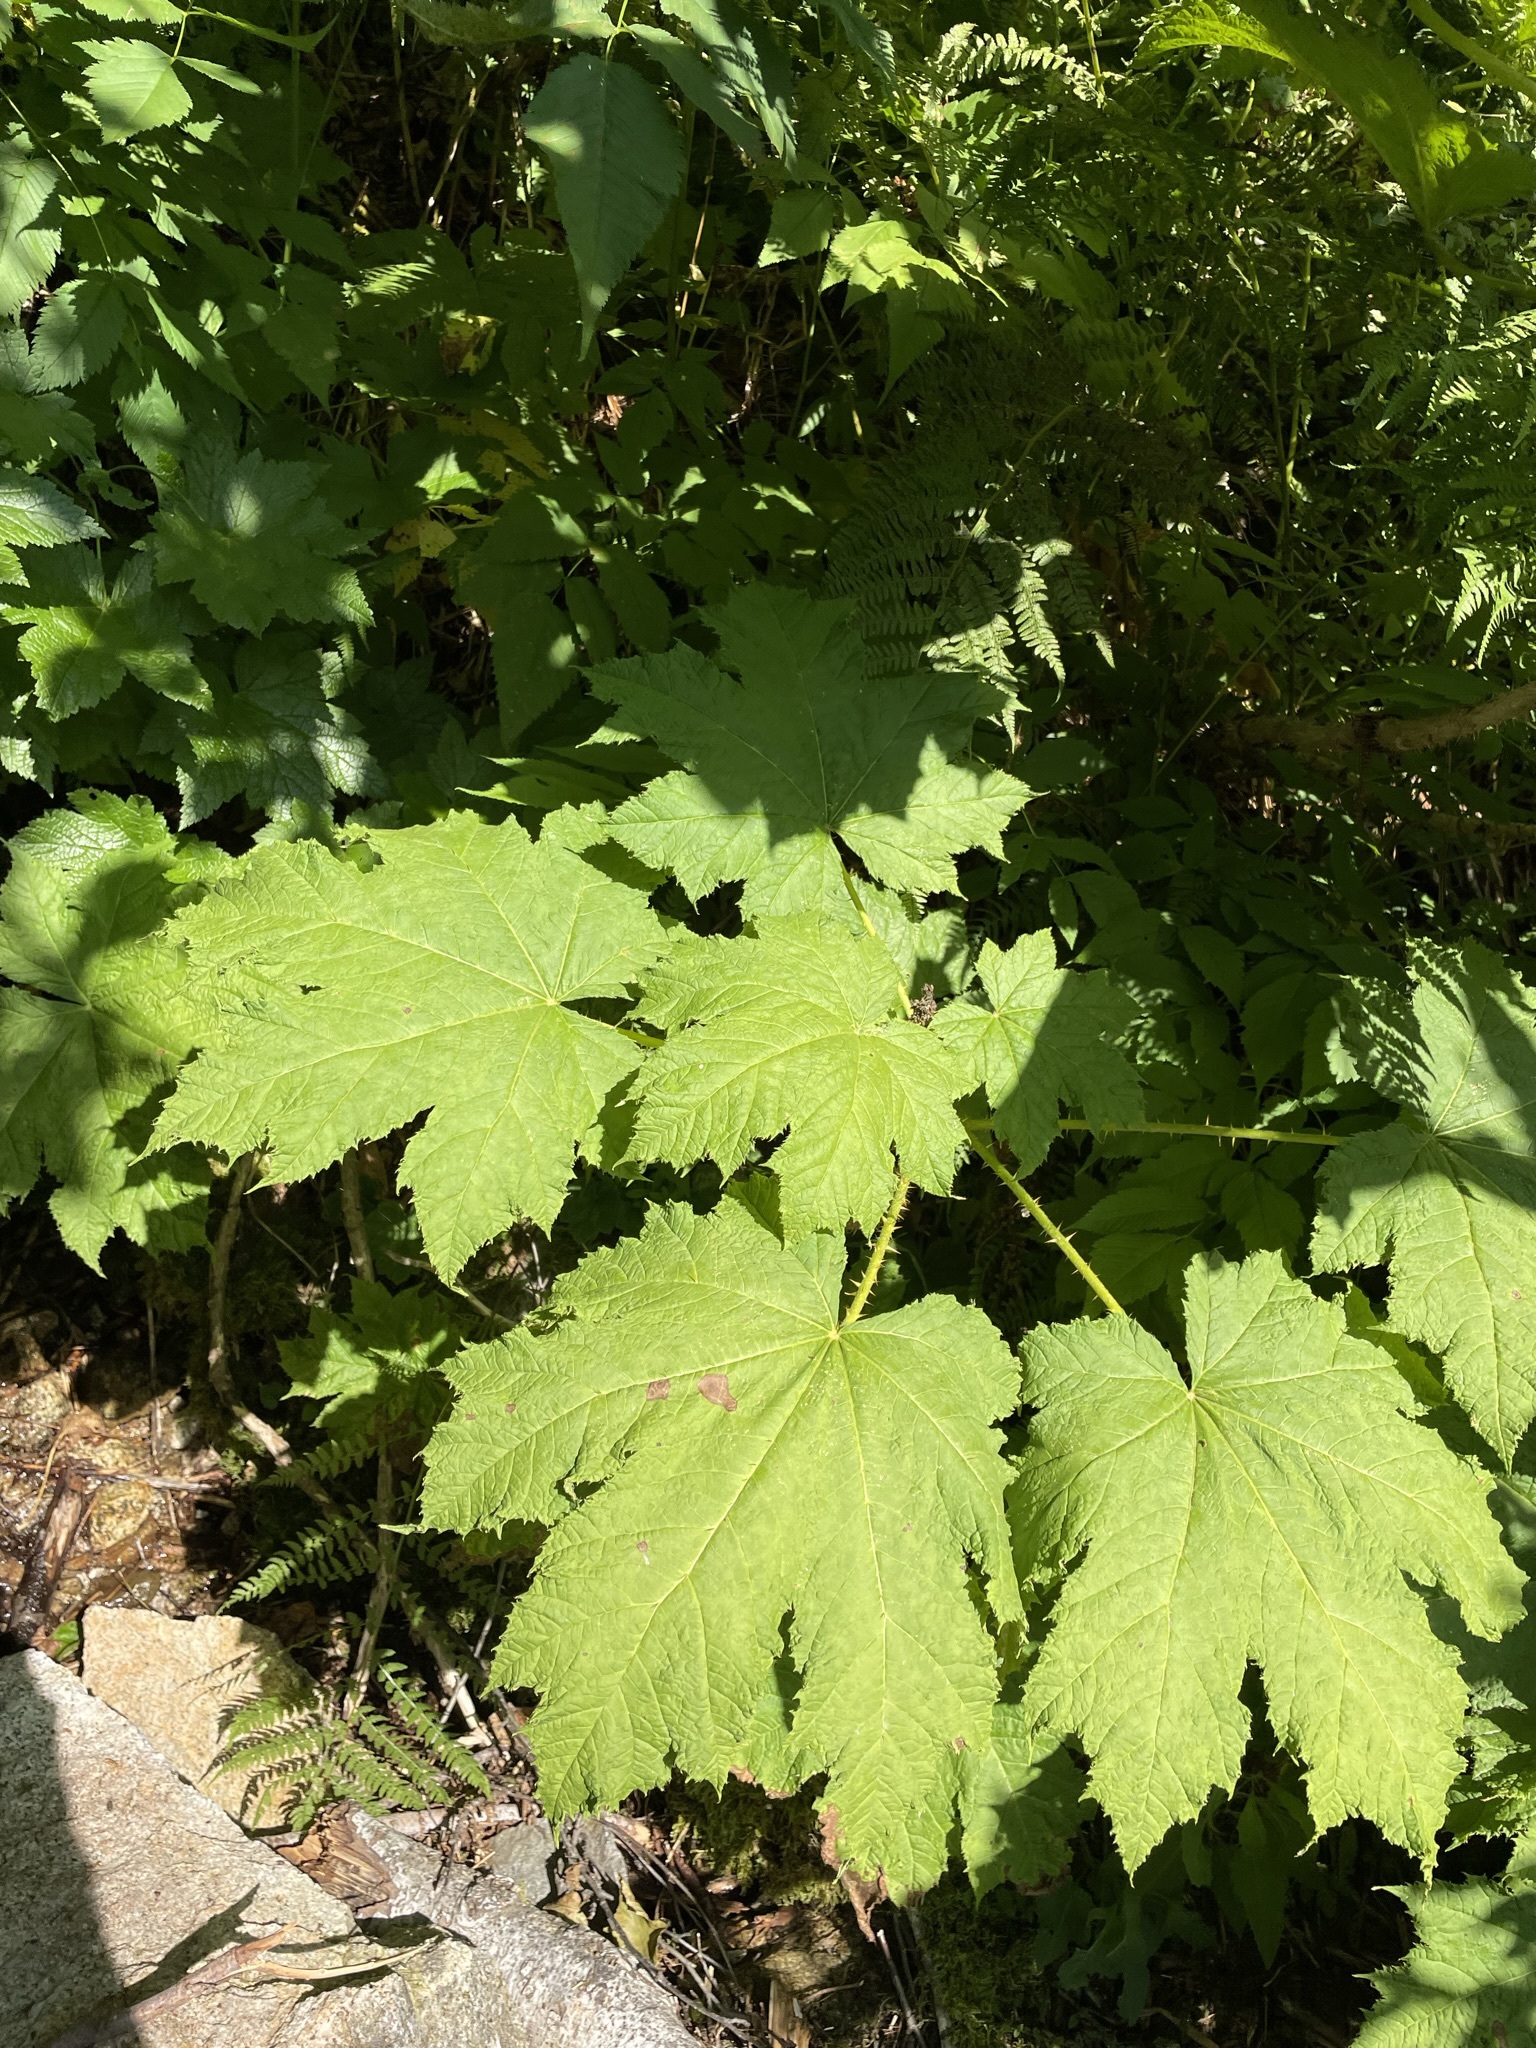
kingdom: Plantae
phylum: Tracheophyta
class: Magnoliopsida
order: Apiales
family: Araliaceae
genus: Oplopanax
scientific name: Oplopanax horridus
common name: Devil's walking-stick
